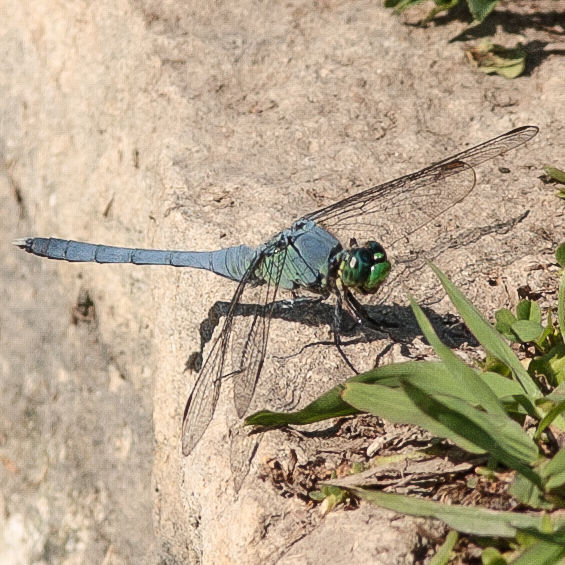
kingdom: Animalia
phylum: Arthropoda
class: Insecta
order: Odonata
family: Libellulidae
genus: Erythemis
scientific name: Erythemis simplicicollis
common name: Eastern pondhawk
